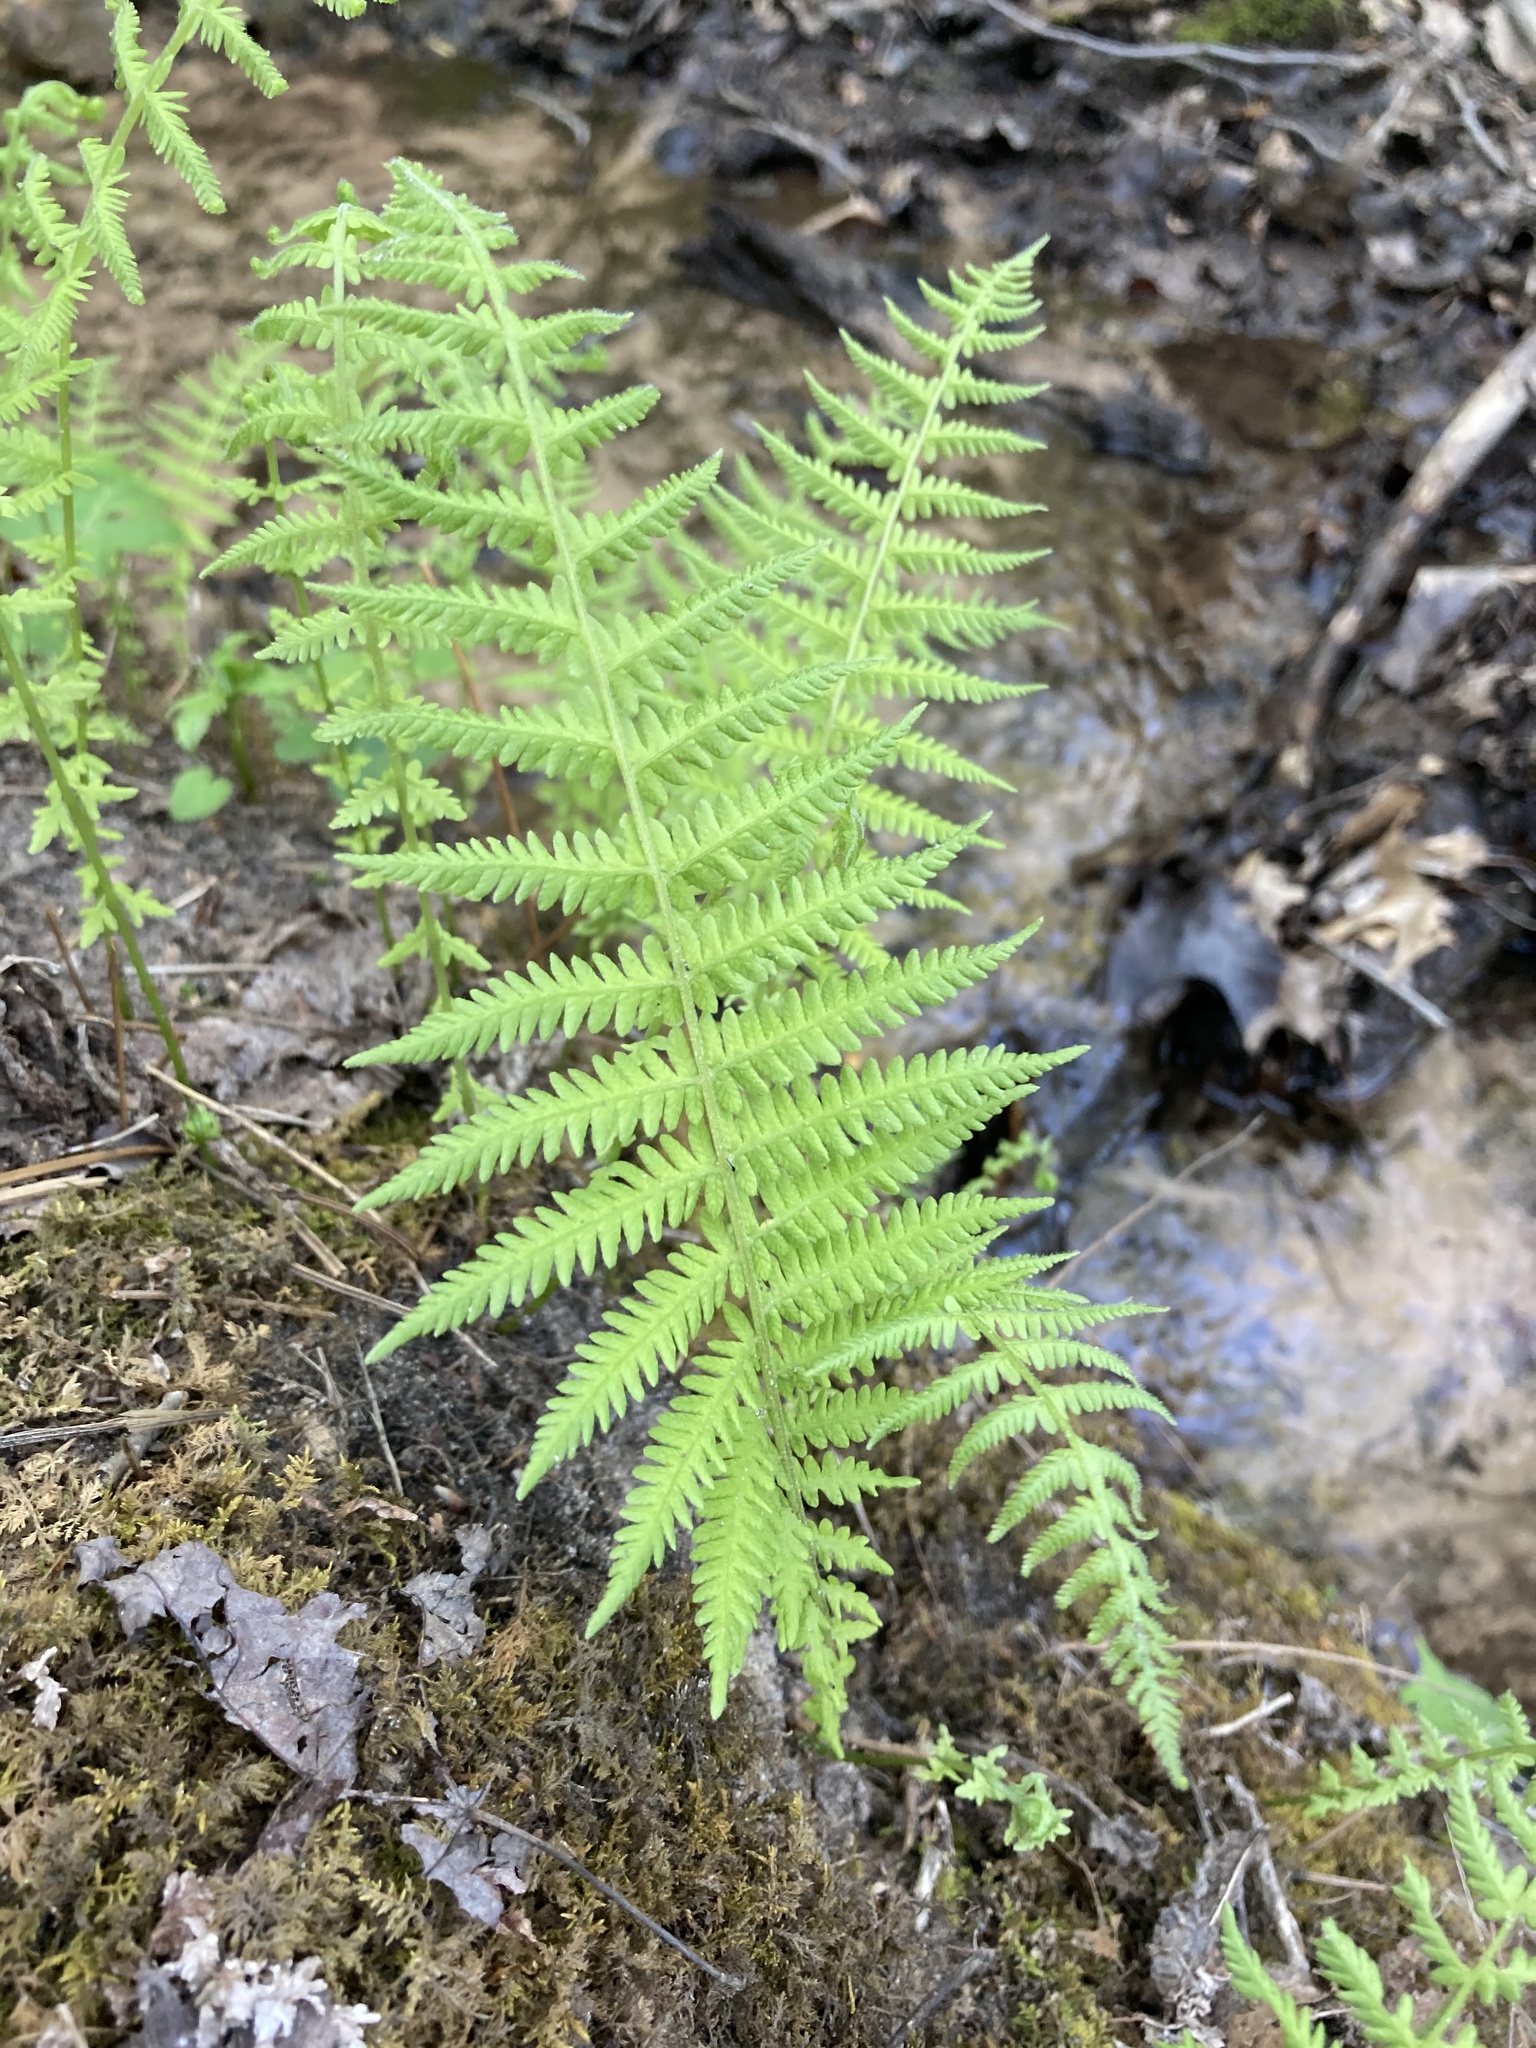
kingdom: Plantae
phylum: Tracheophyta
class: Polypodiopsida
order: Polypodiales
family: Thelypteridaceae
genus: Amauropelta
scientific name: Amauropelta noveboracensis
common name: New york fern
